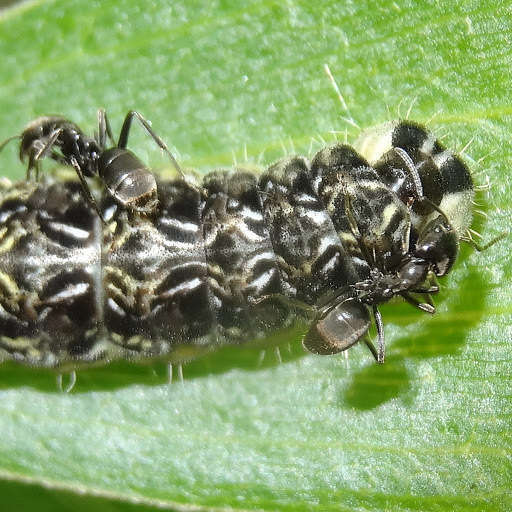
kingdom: Animalia
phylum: Arthropoda
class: Insecta
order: Hymenoptera
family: Formicidae
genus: Anonychomyrma
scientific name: Anonychomyrma biconvexa
